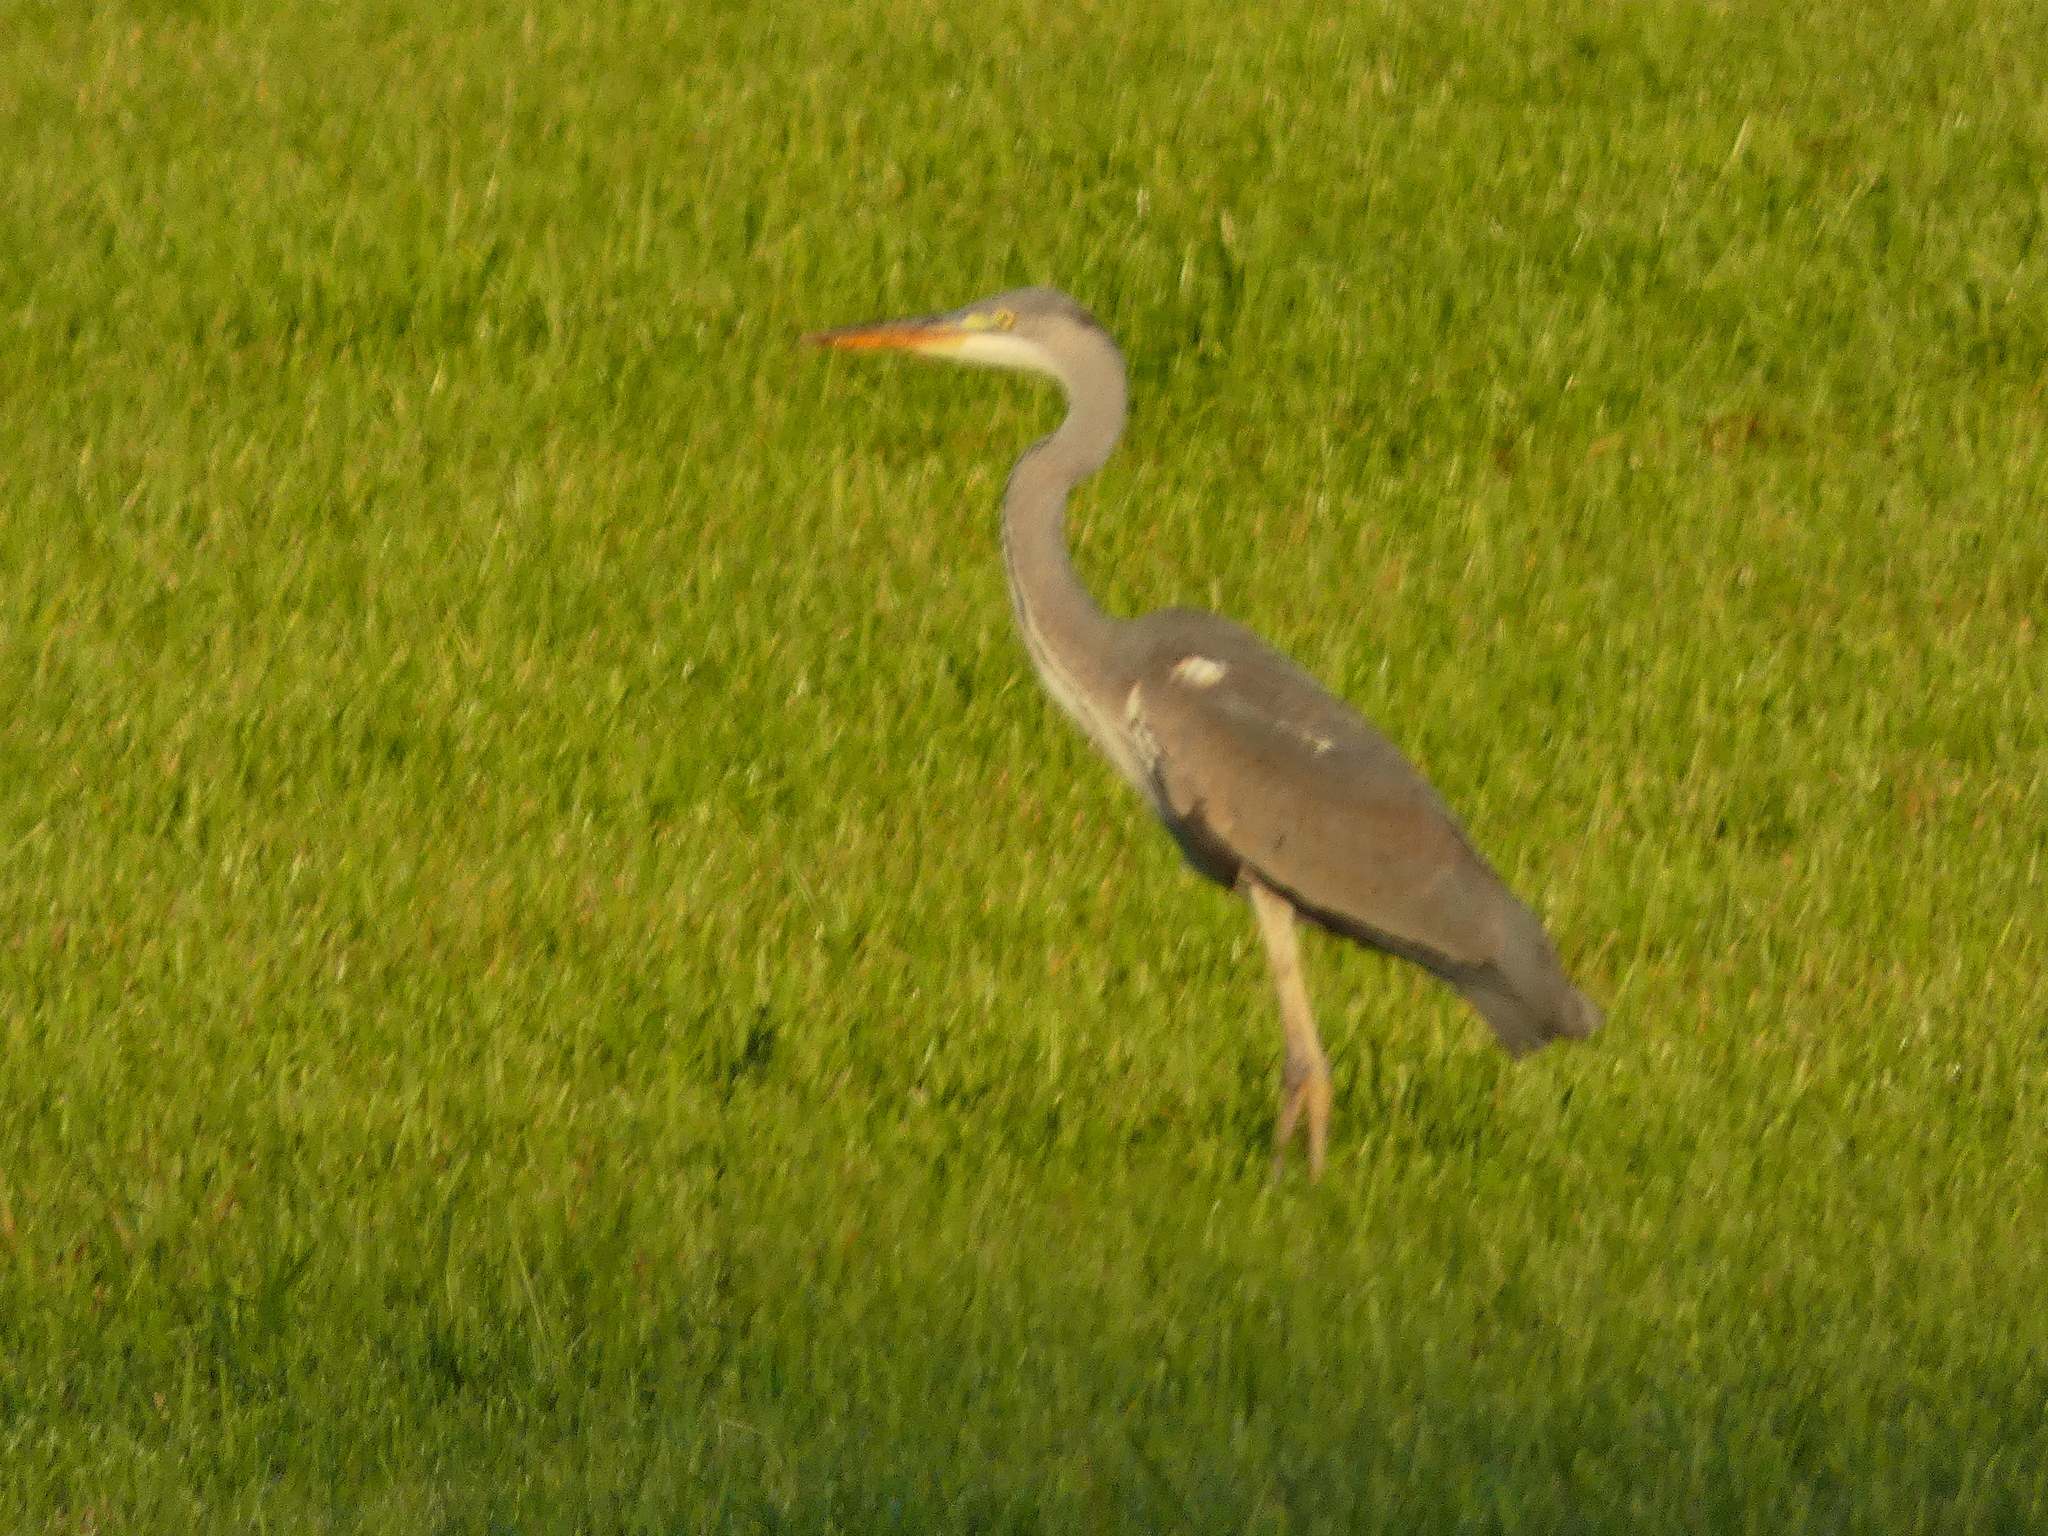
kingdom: Animalia
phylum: Chordata
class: Aves
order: Pelecaniformes
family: Ardeidae
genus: Ardea
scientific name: Ardea cinerea
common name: Grey heron
